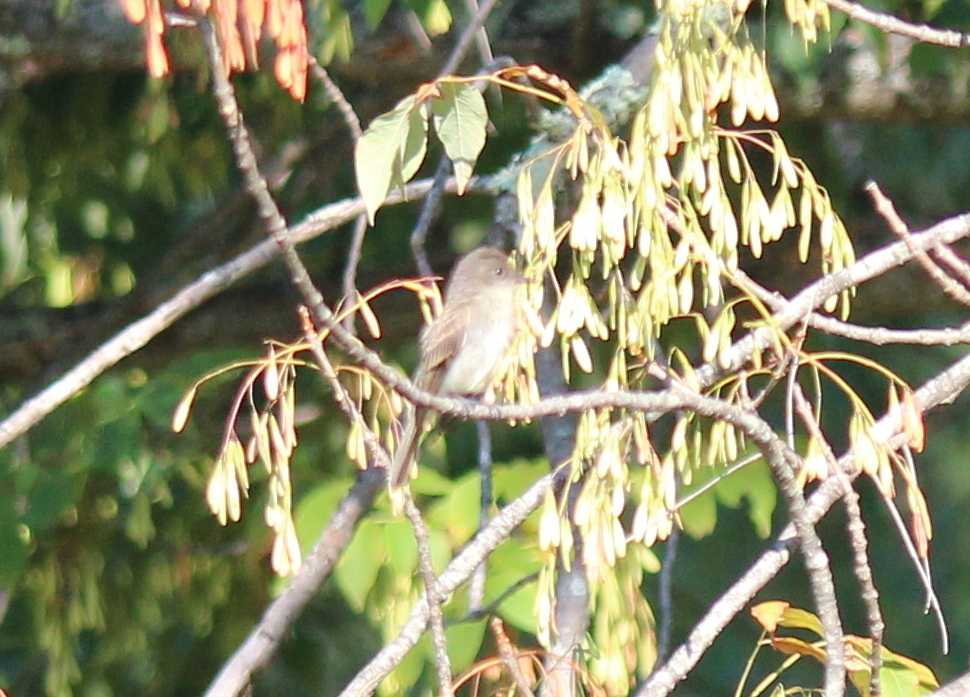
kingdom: Animalia
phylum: Chordata
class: Aves
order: Passeriformes
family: Tyrannidae
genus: Sayornis
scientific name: Sayornis phoebe
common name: Eastern phoebe
